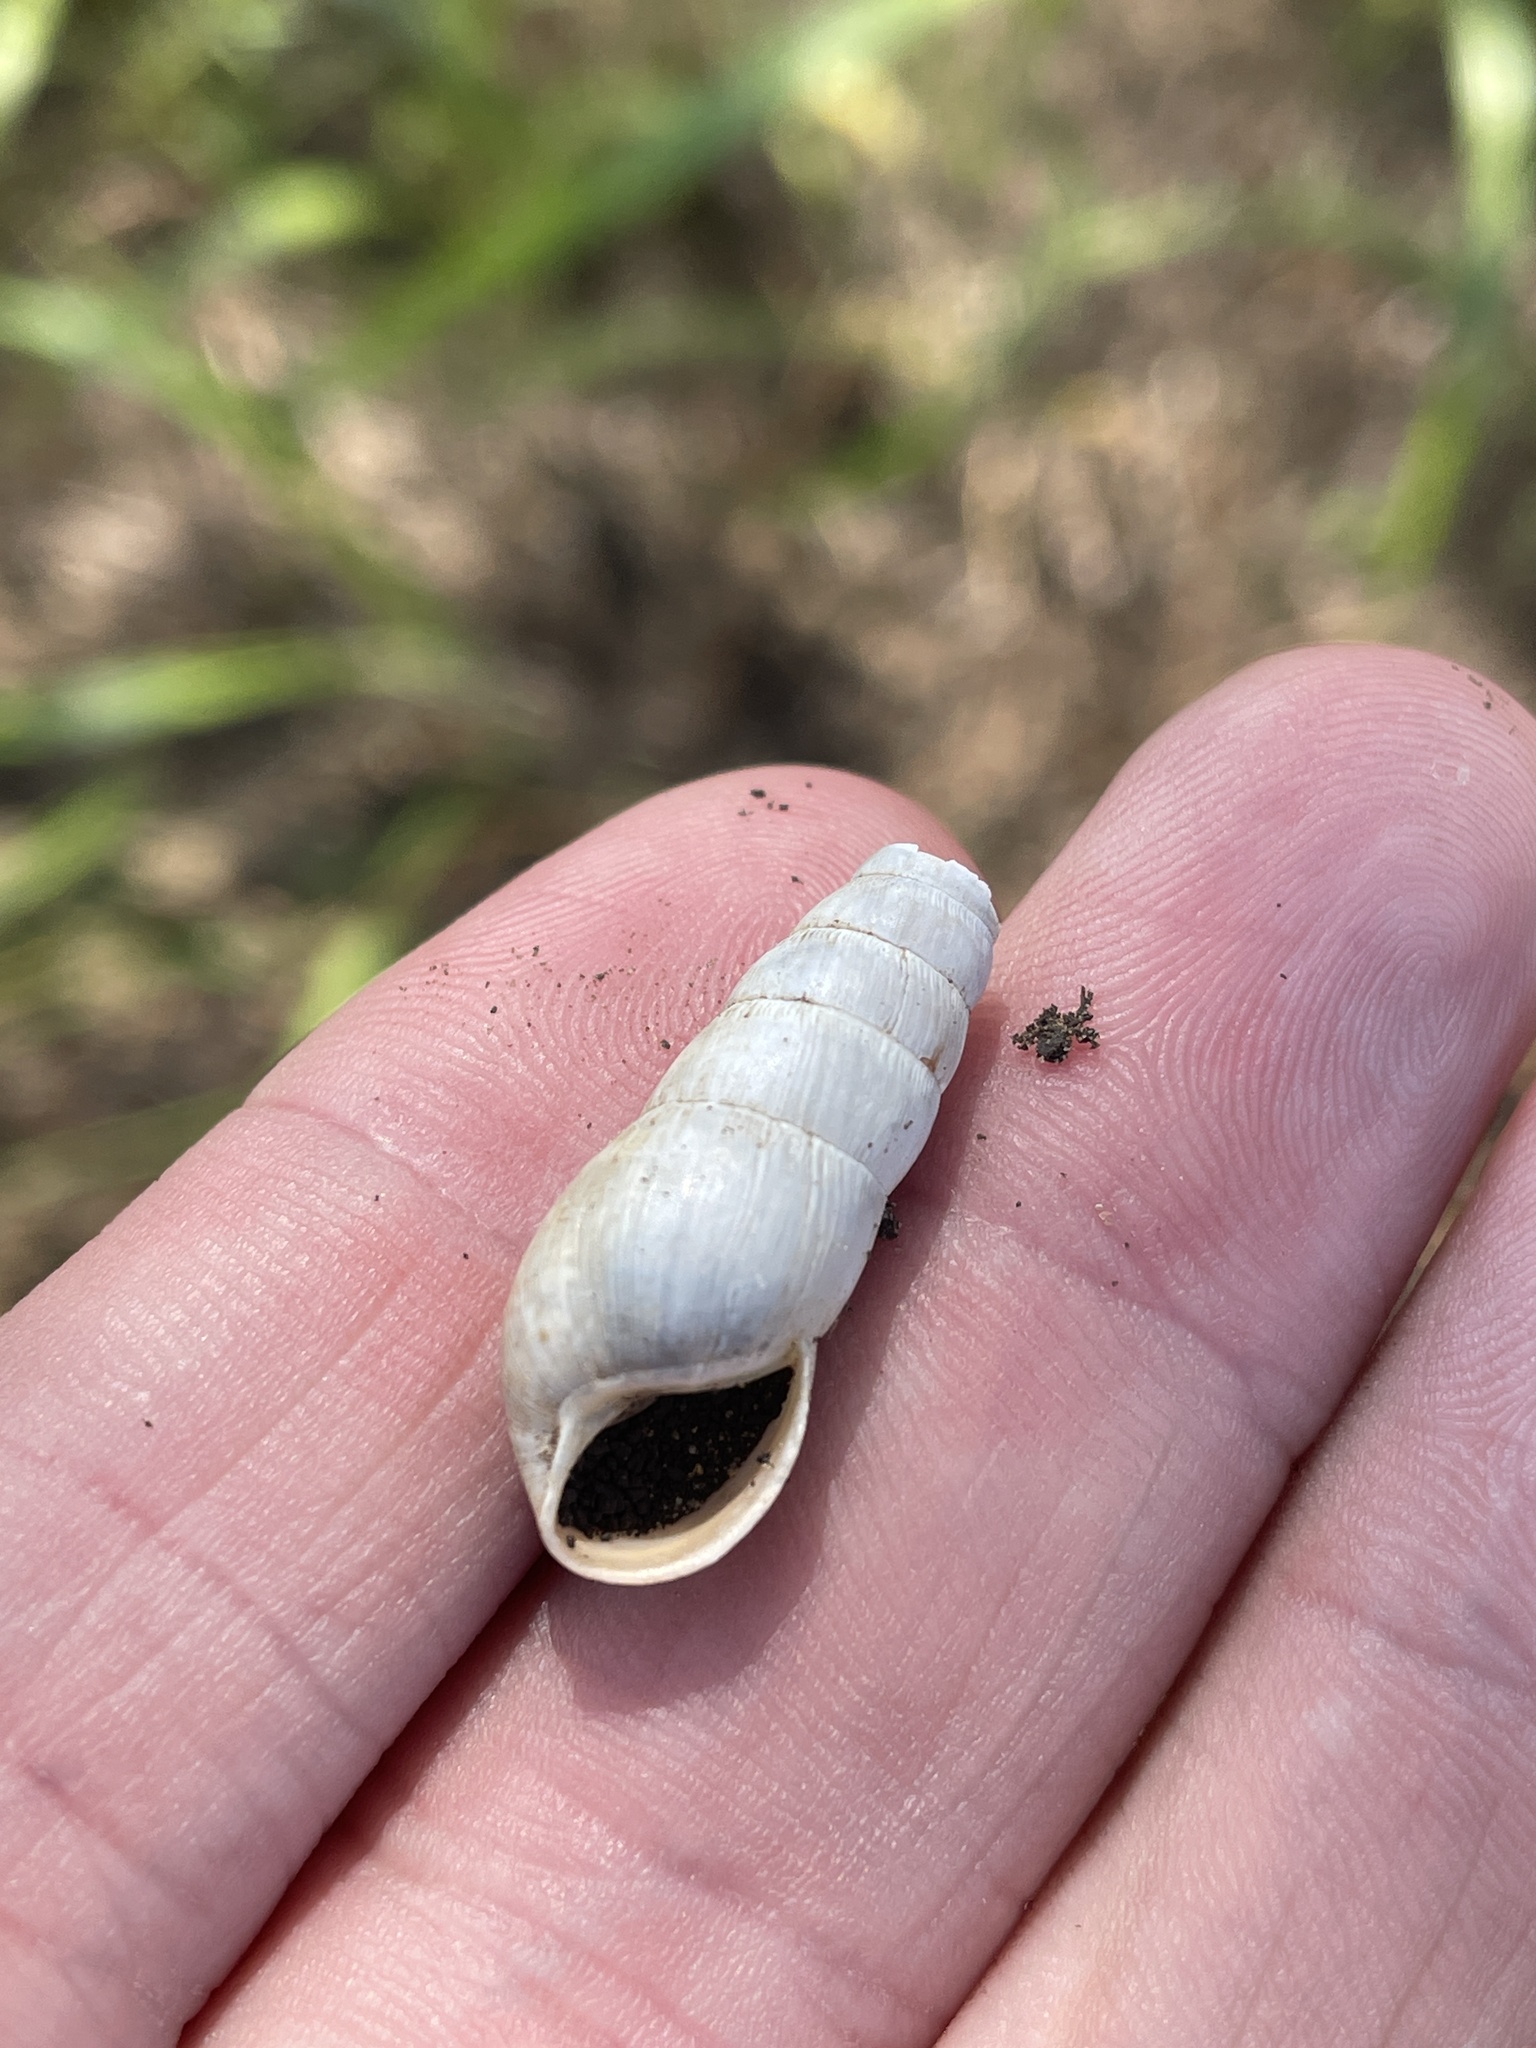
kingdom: Animalia
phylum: Mollusca
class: Gastropoda
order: Stylommatophora
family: Achatinidae
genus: Rumina
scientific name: Rumina decollata
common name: Decollate snail
